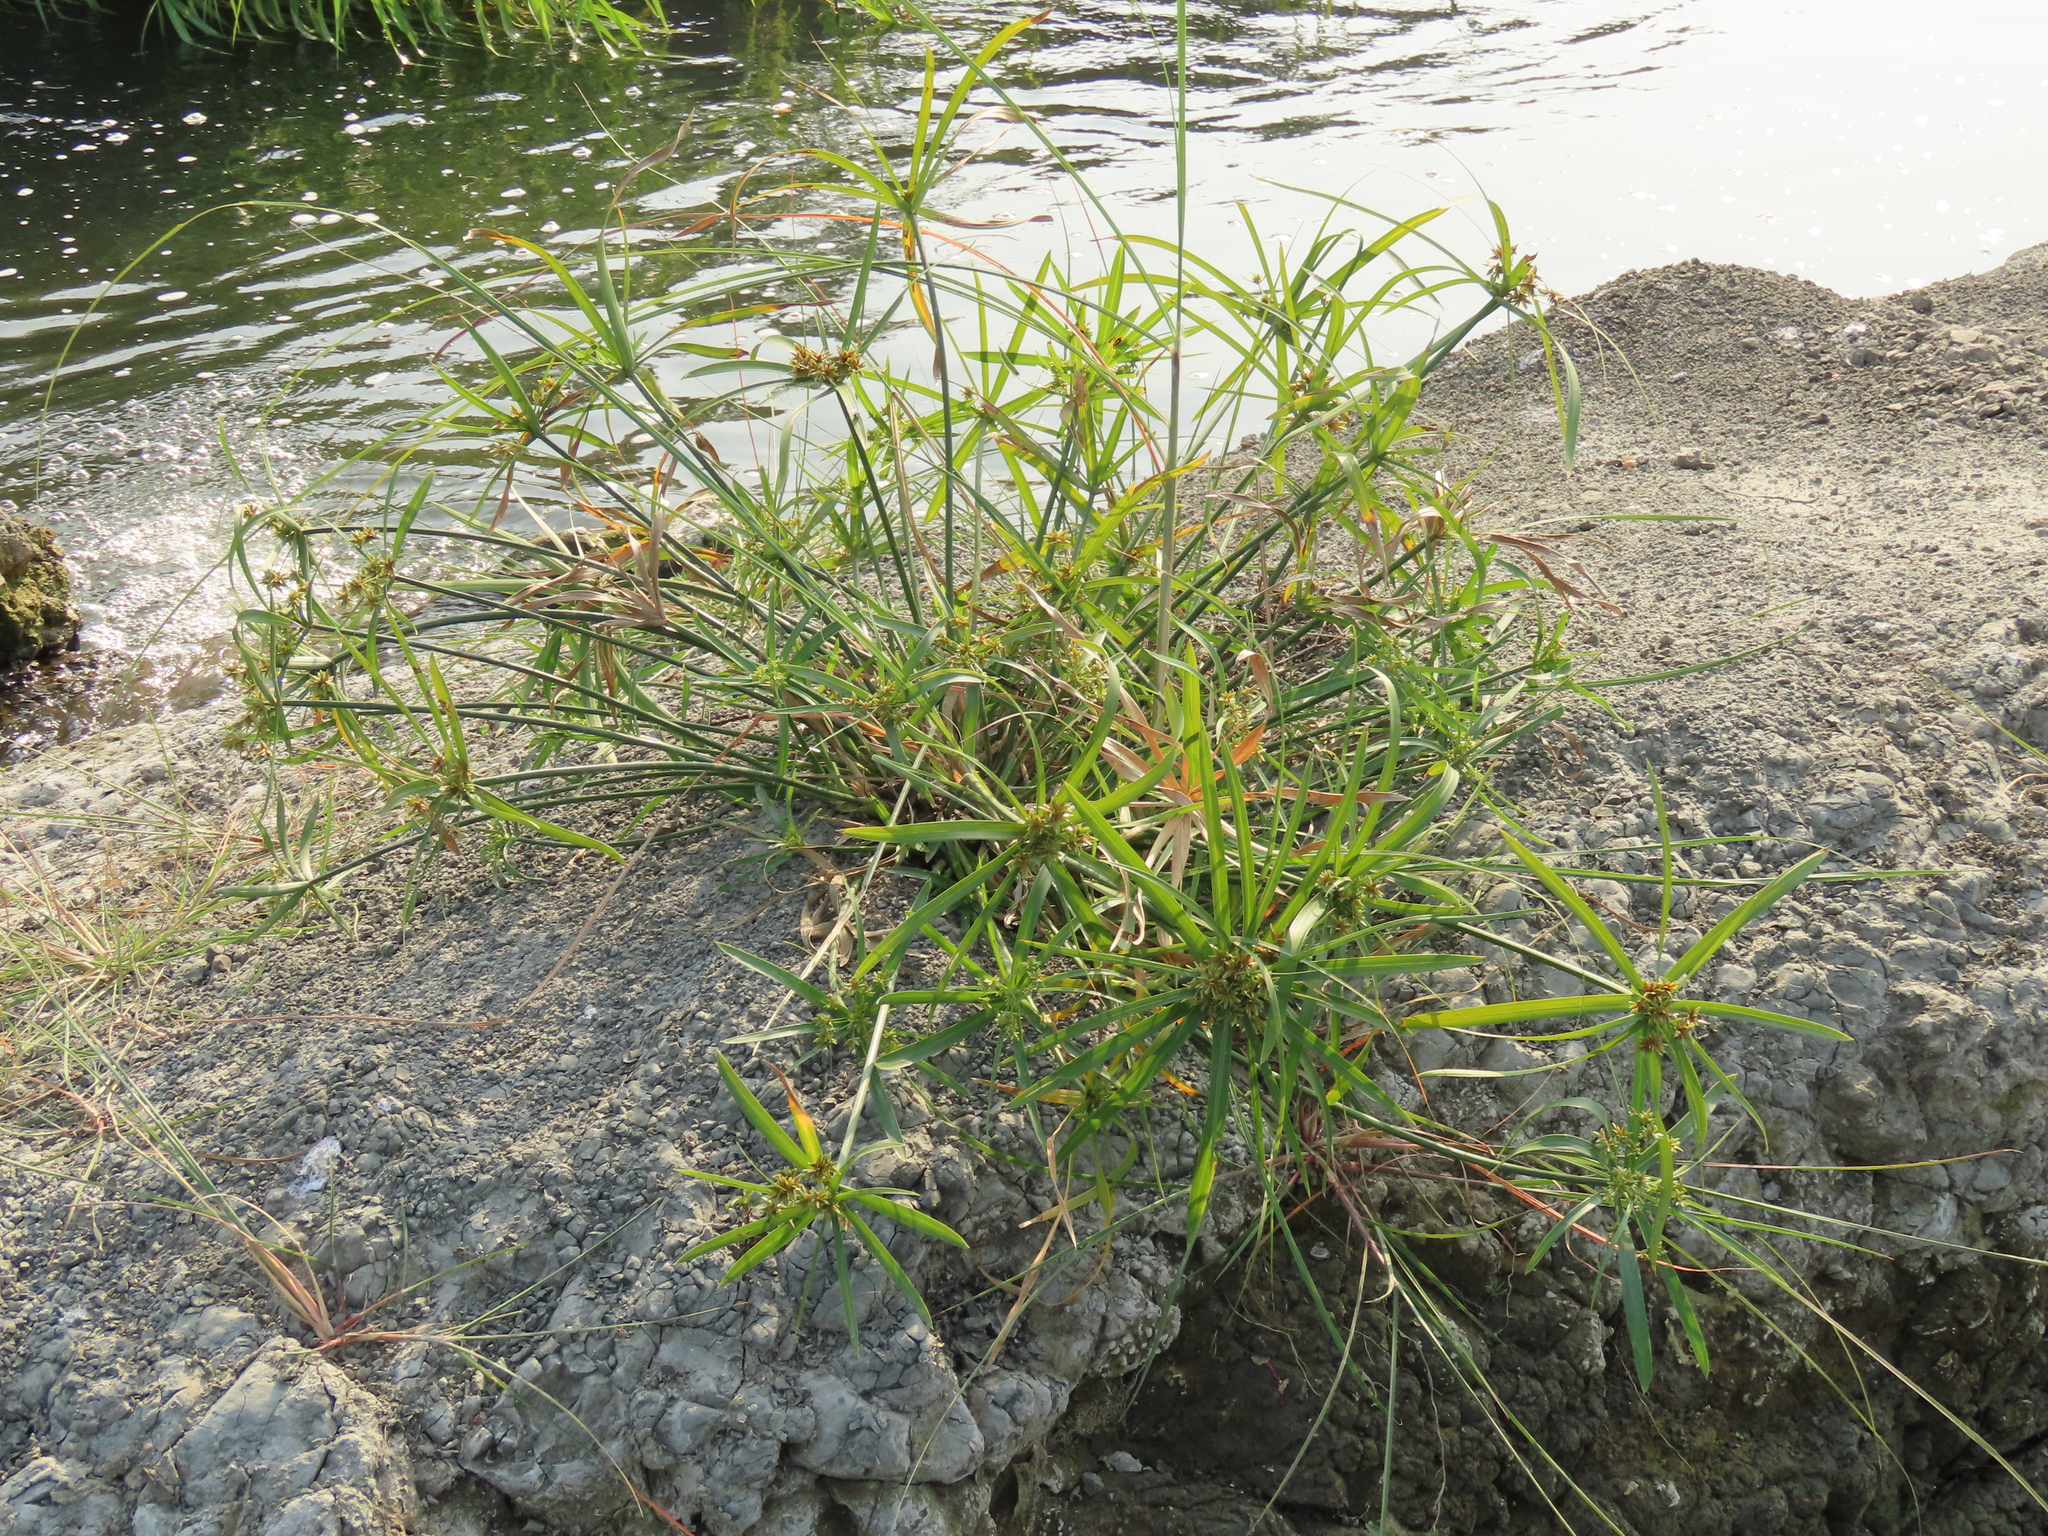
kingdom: Plantae
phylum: Tracheophyta
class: Liliopsida
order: Poales
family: Cyperaceae
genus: Cyperus
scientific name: Cyperus alternifolius
